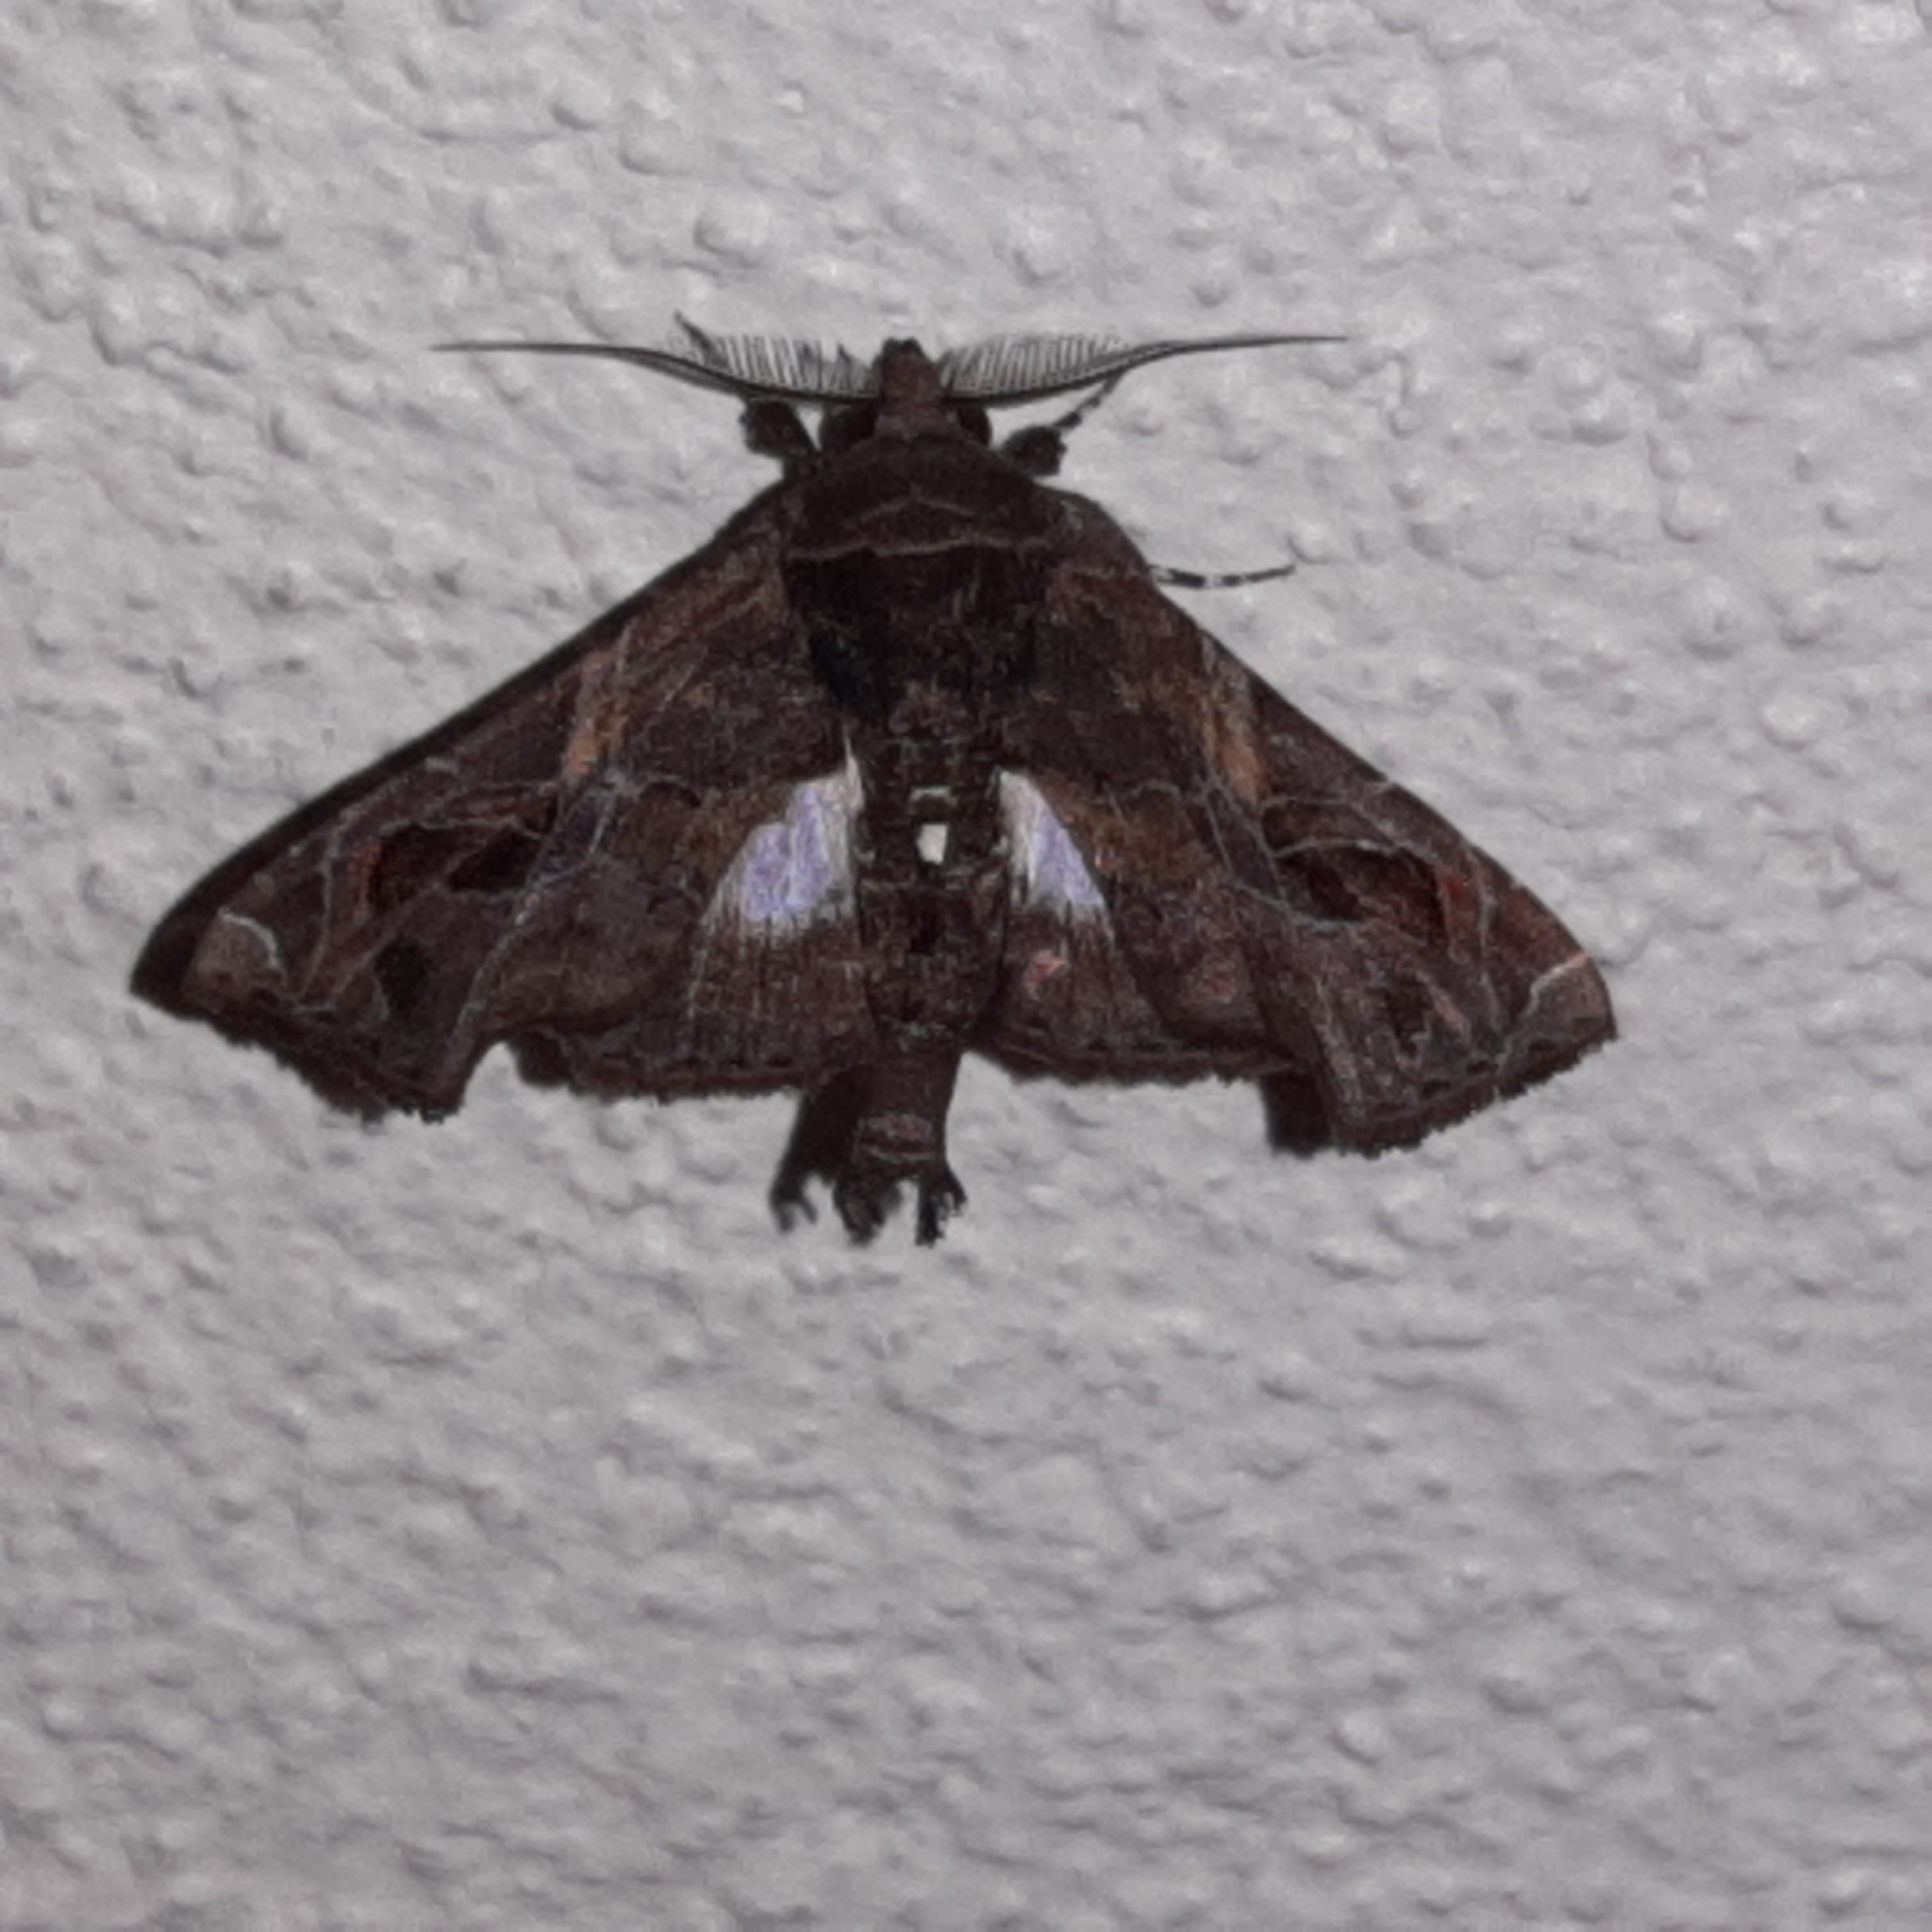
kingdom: Animalia
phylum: Arthropoda
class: Insecta
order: Lepidoptera
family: Euteliidae
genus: Eutelia
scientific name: Eutelia auratrix
